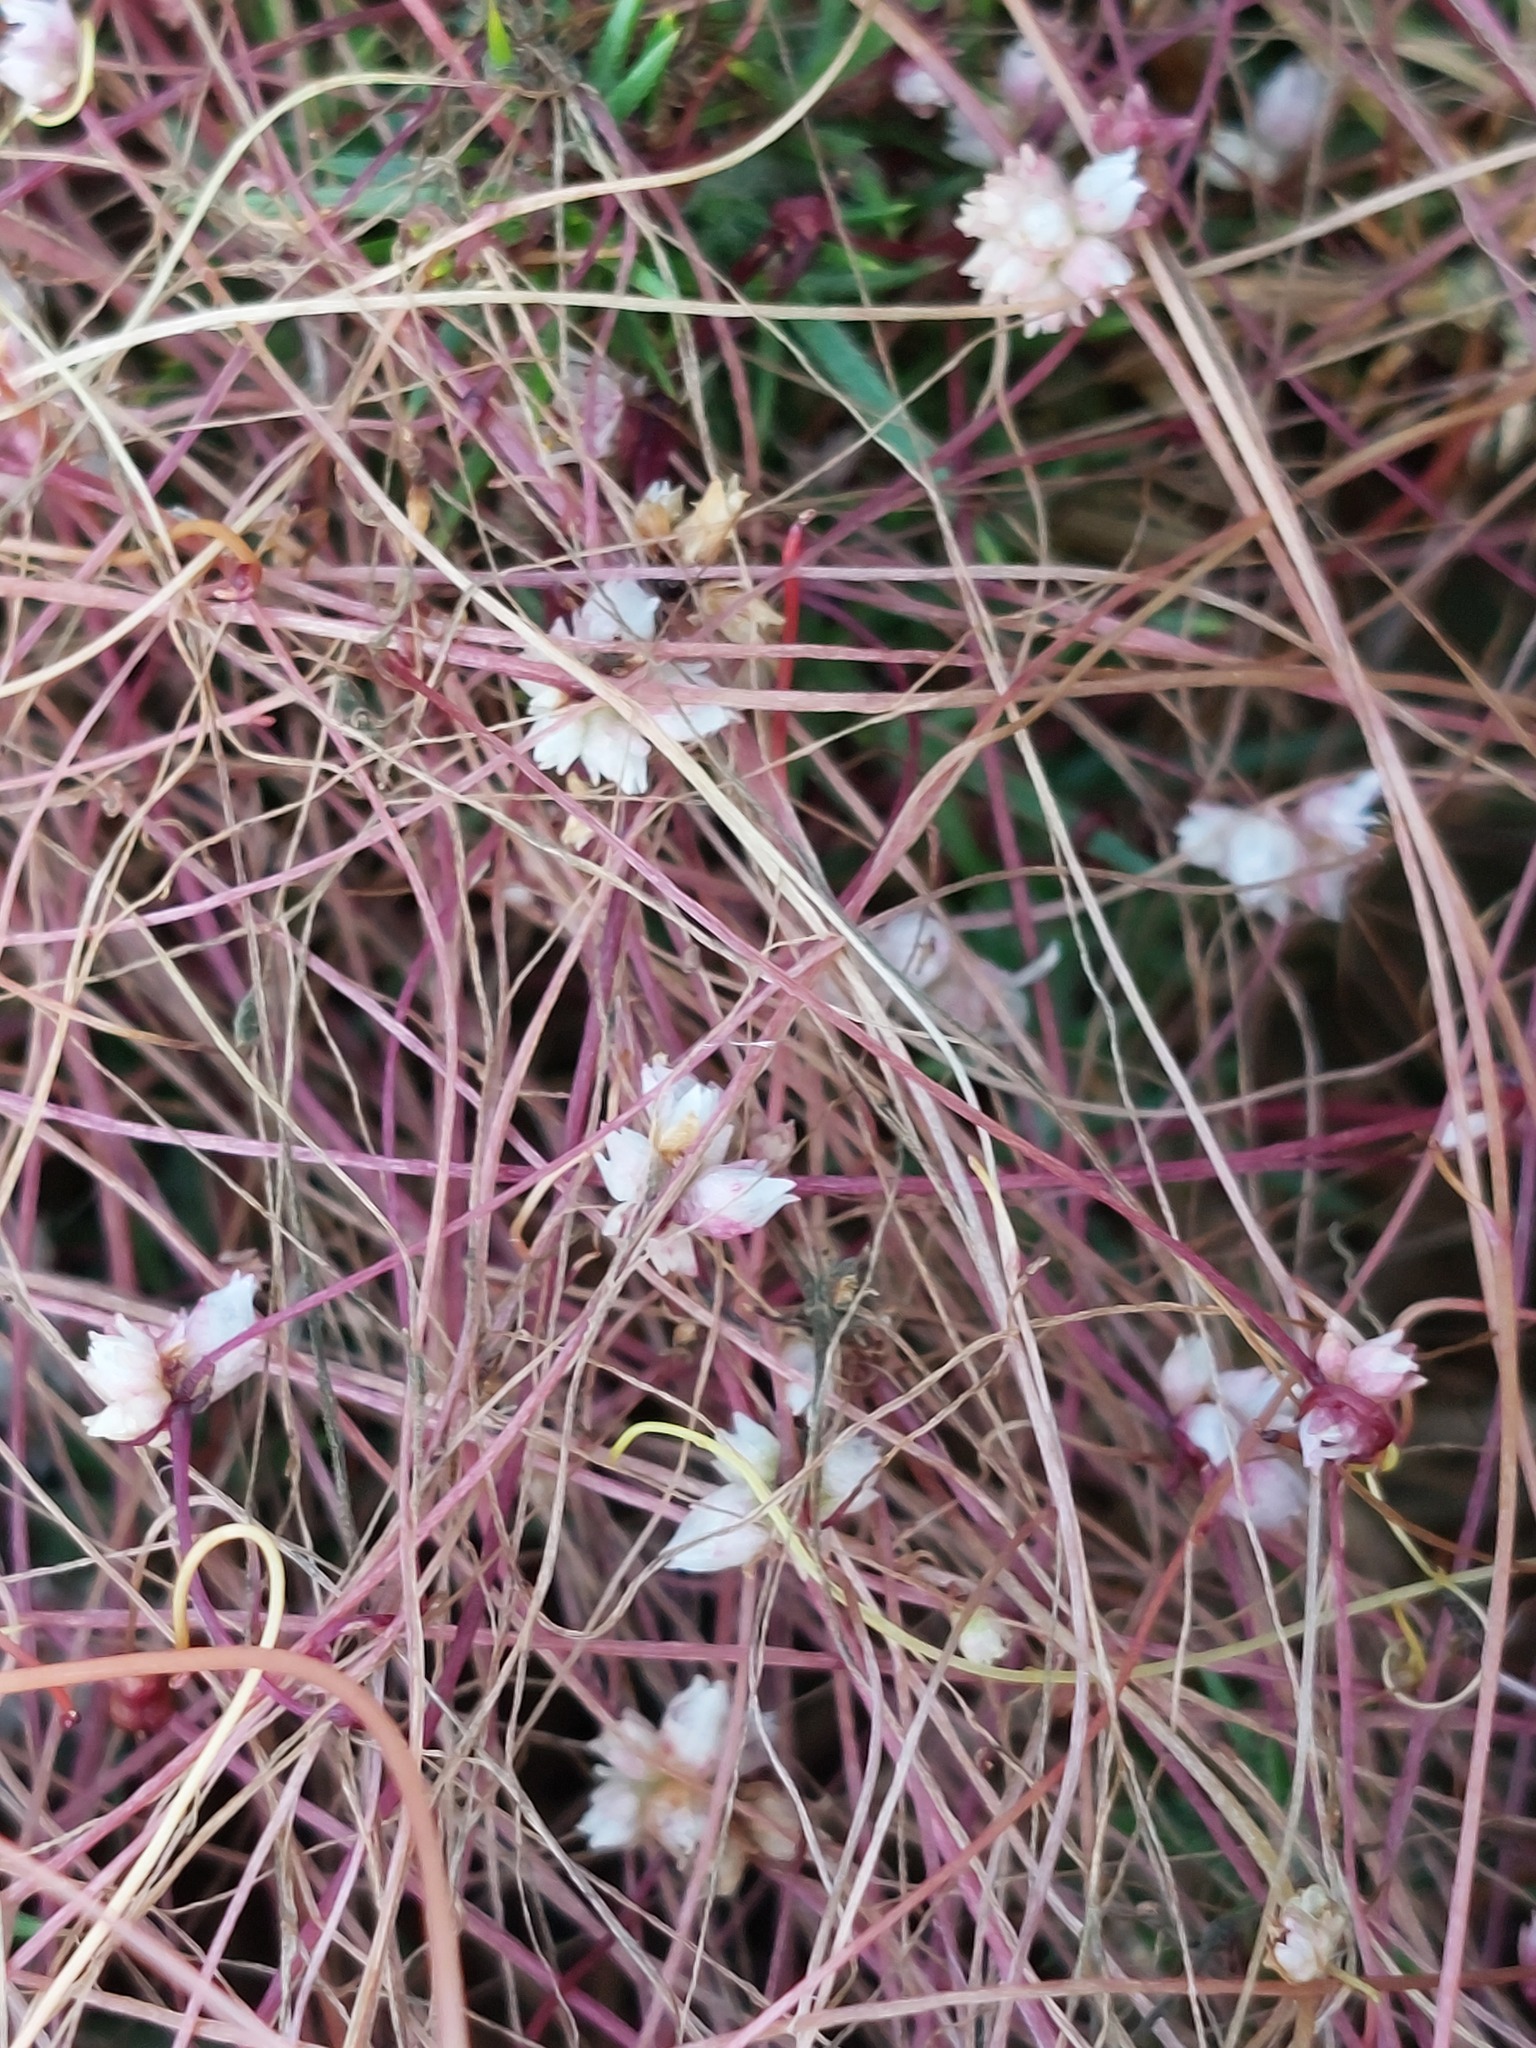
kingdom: Plantae
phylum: Tracheophyta
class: Magnoliopsida
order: Solanales
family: Convolvulaceae
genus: Cuscuta
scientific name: Cuscuta epithymum
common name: Clover dodder
